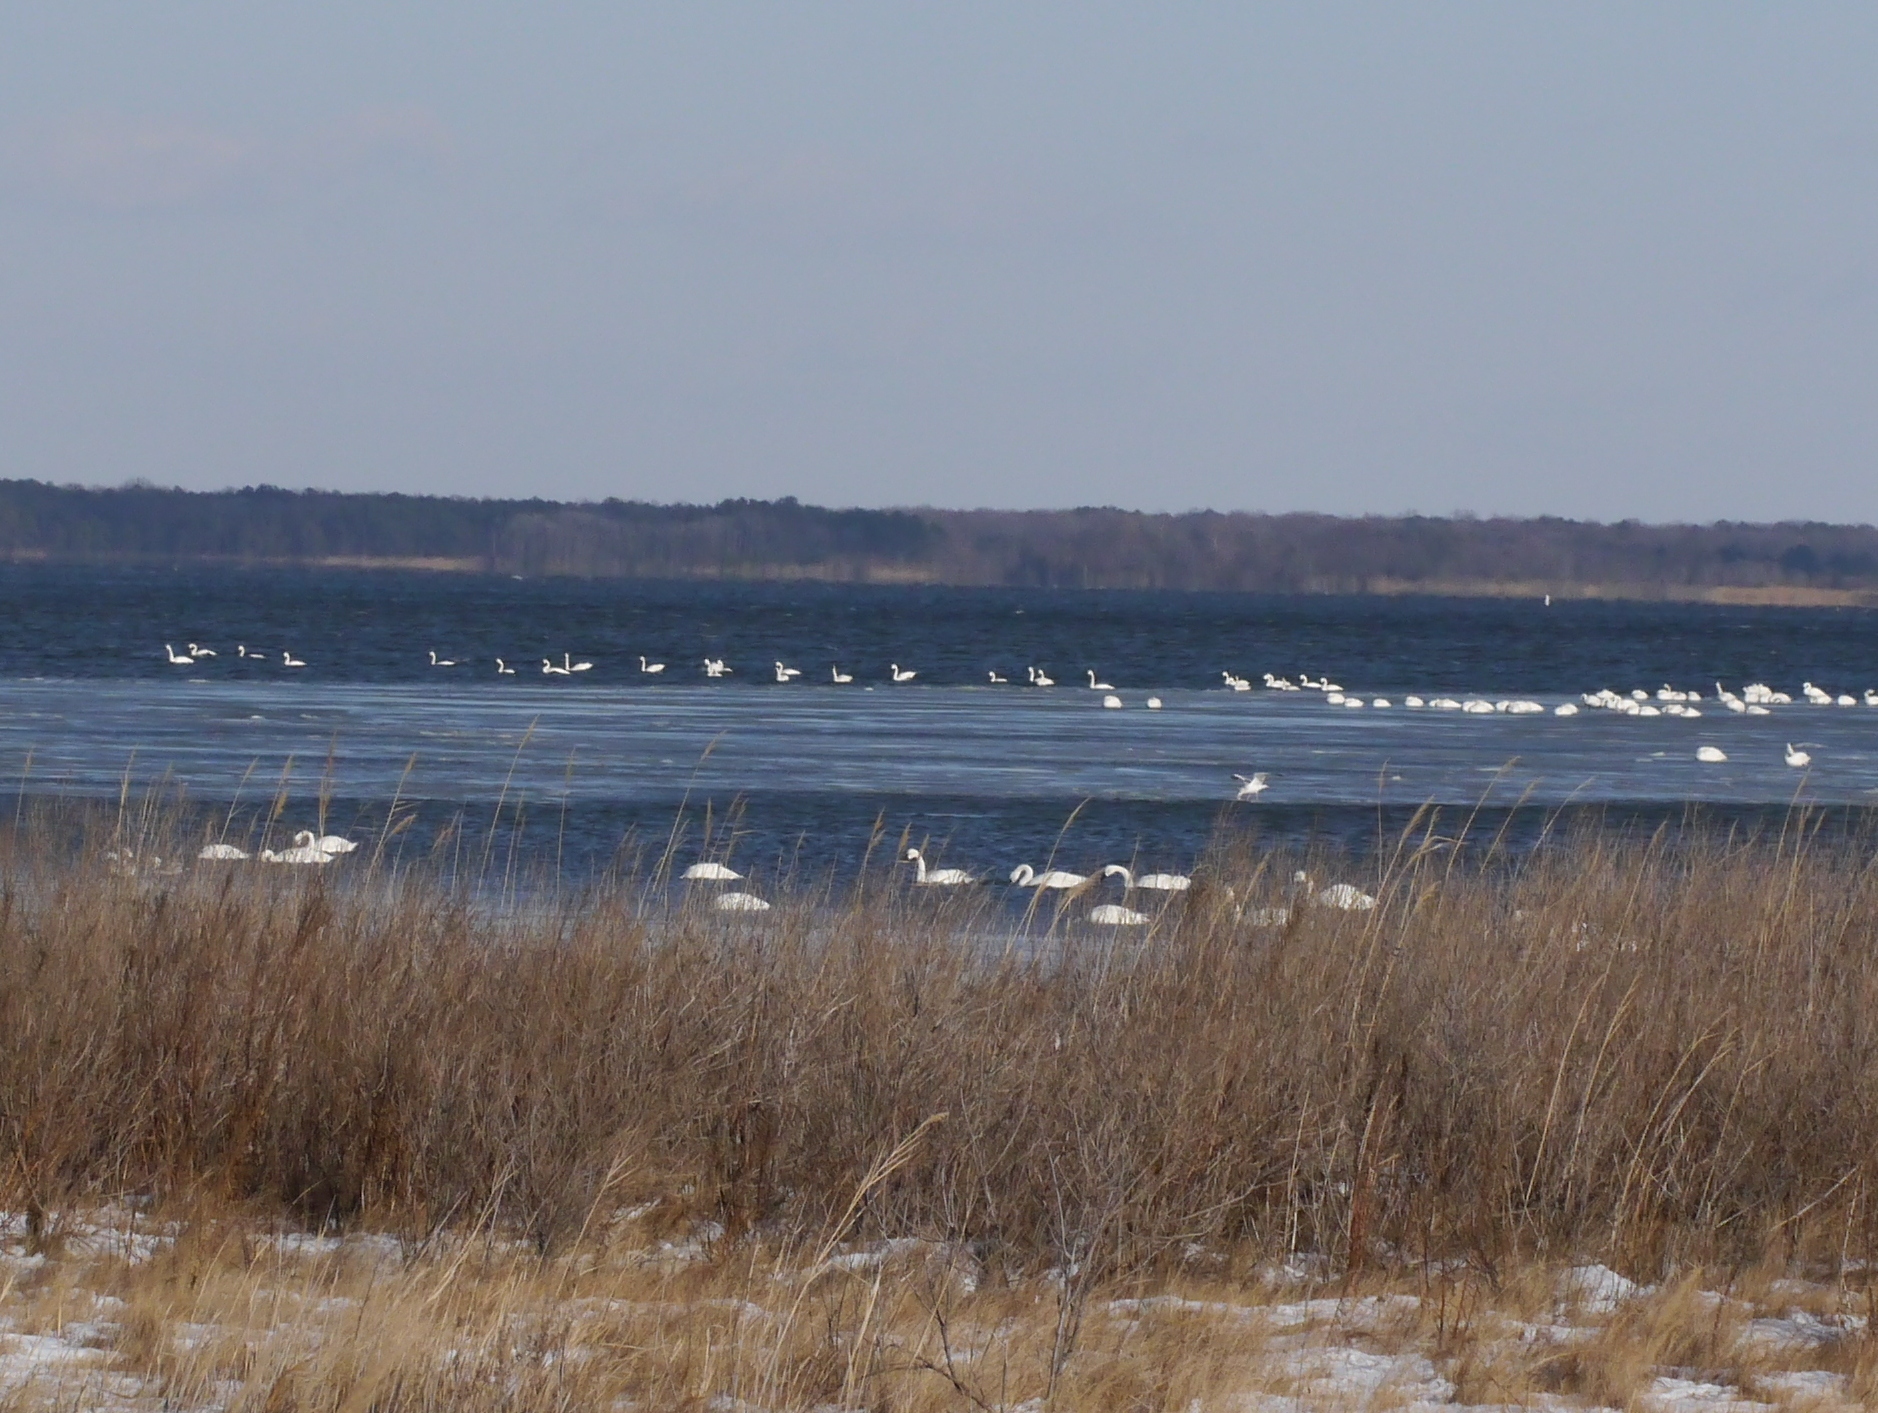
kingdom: Animalia
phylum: Chordata
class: Aves
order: Anseriformes
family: Anatidae
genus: Cygnus
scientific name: Cygnus columbianus
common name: Tundra swan
